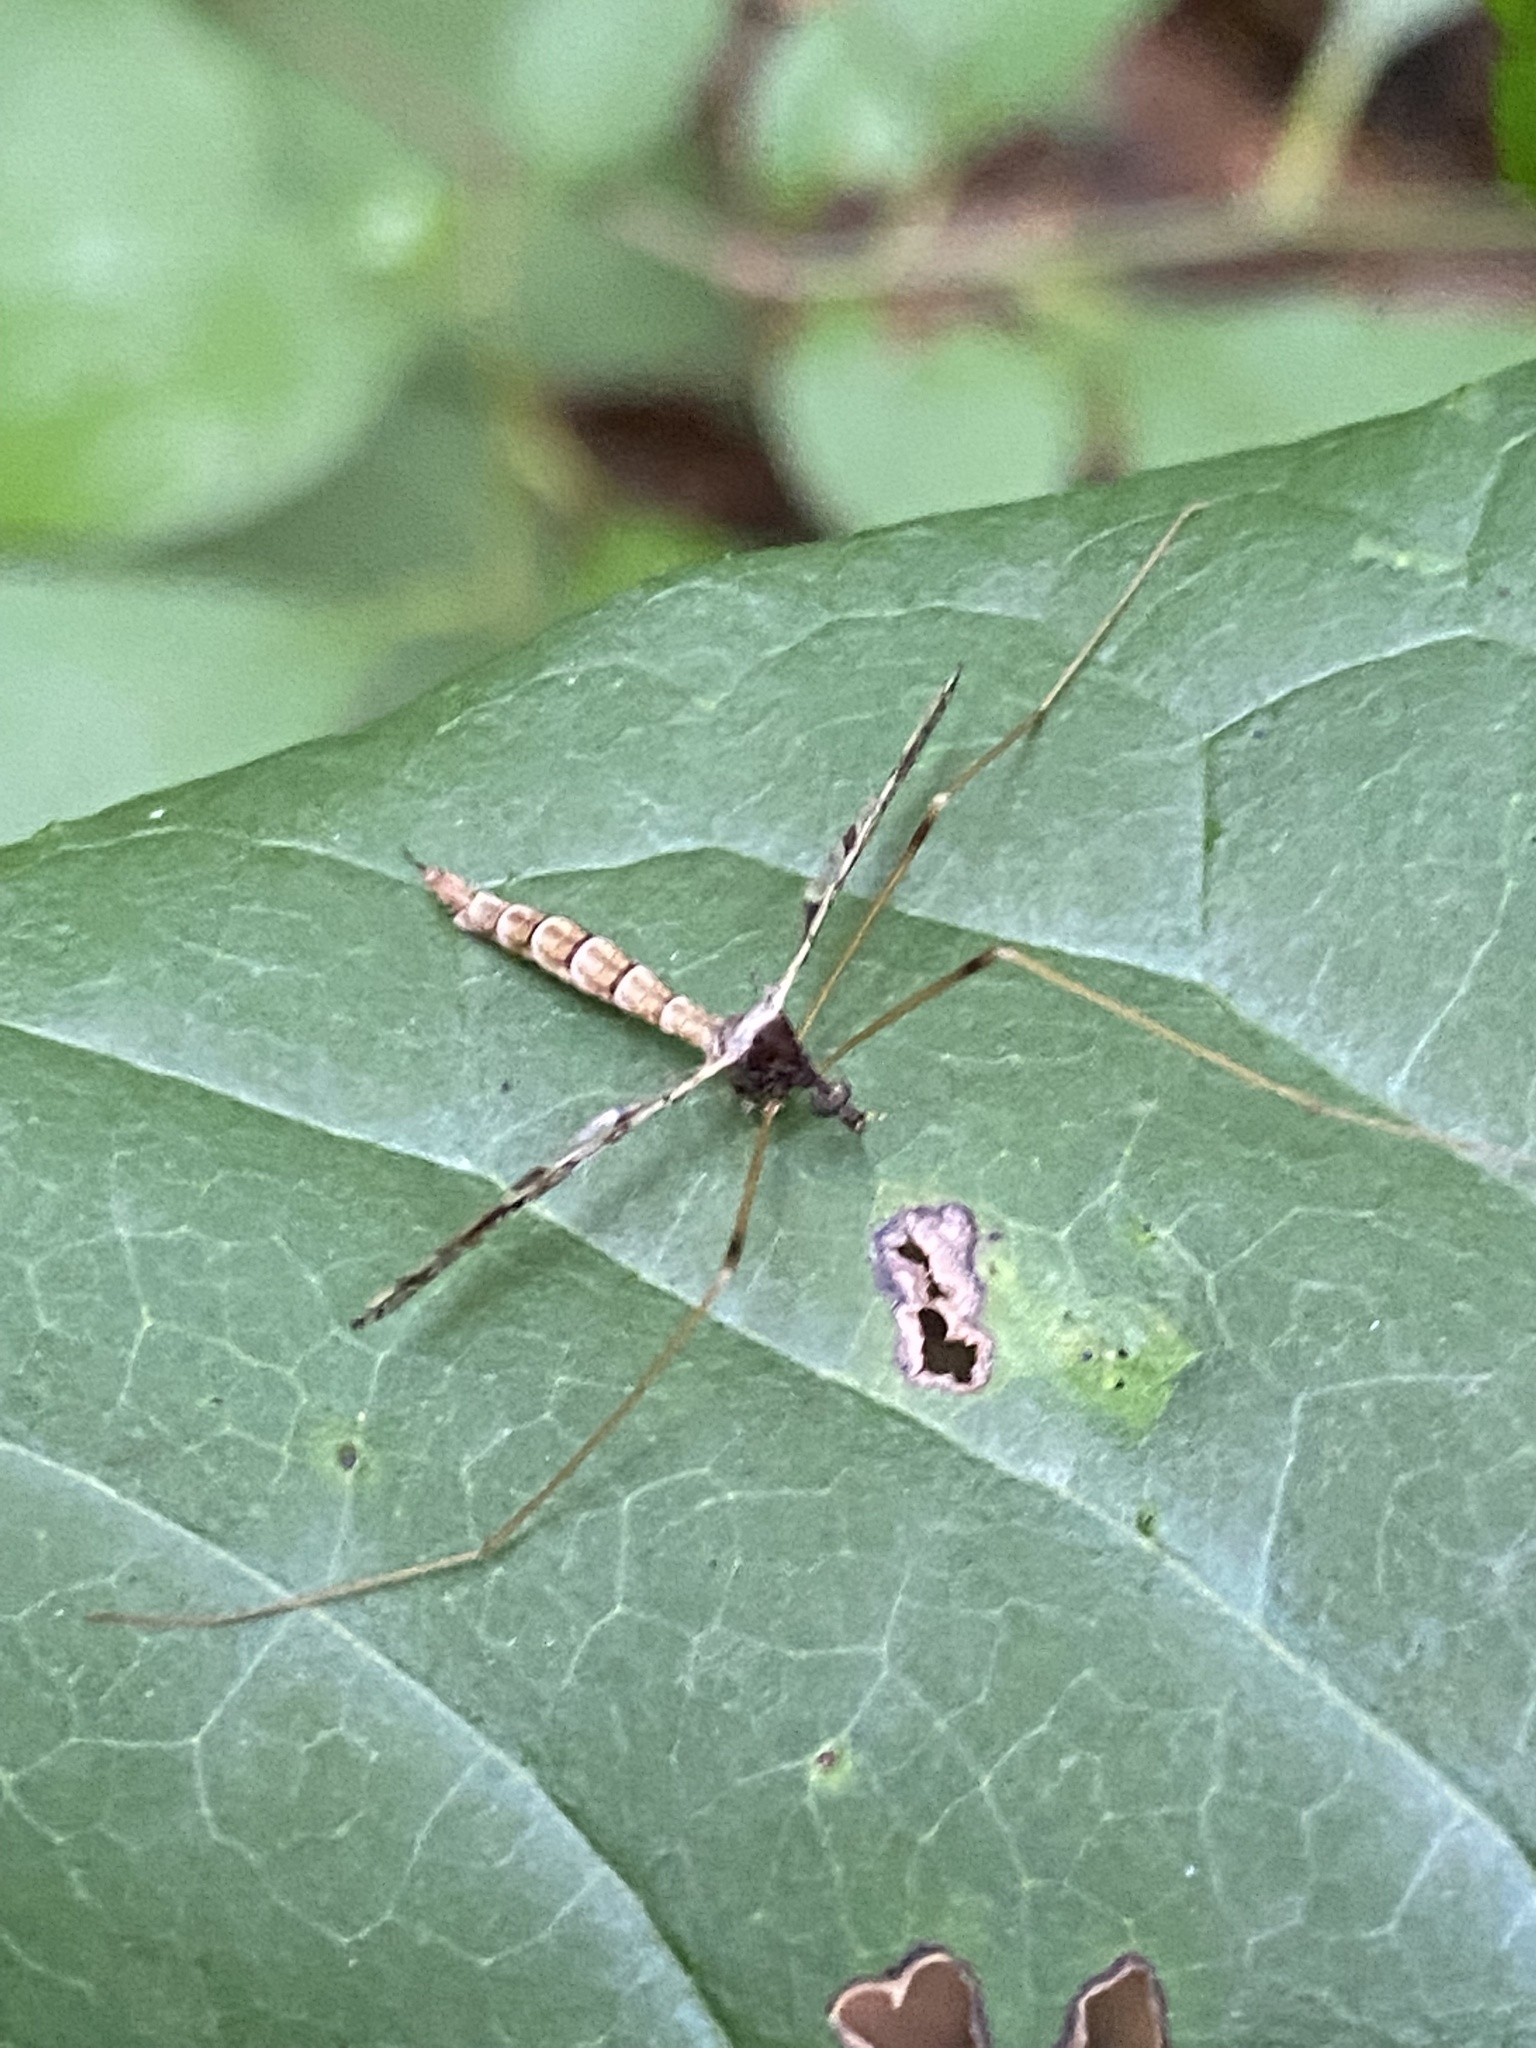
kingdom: Animalia
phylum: Arthropoda
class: Insecta
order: Diptera
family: Limoniidae
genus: Epiphragma
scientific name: Epiphragma solatrix
